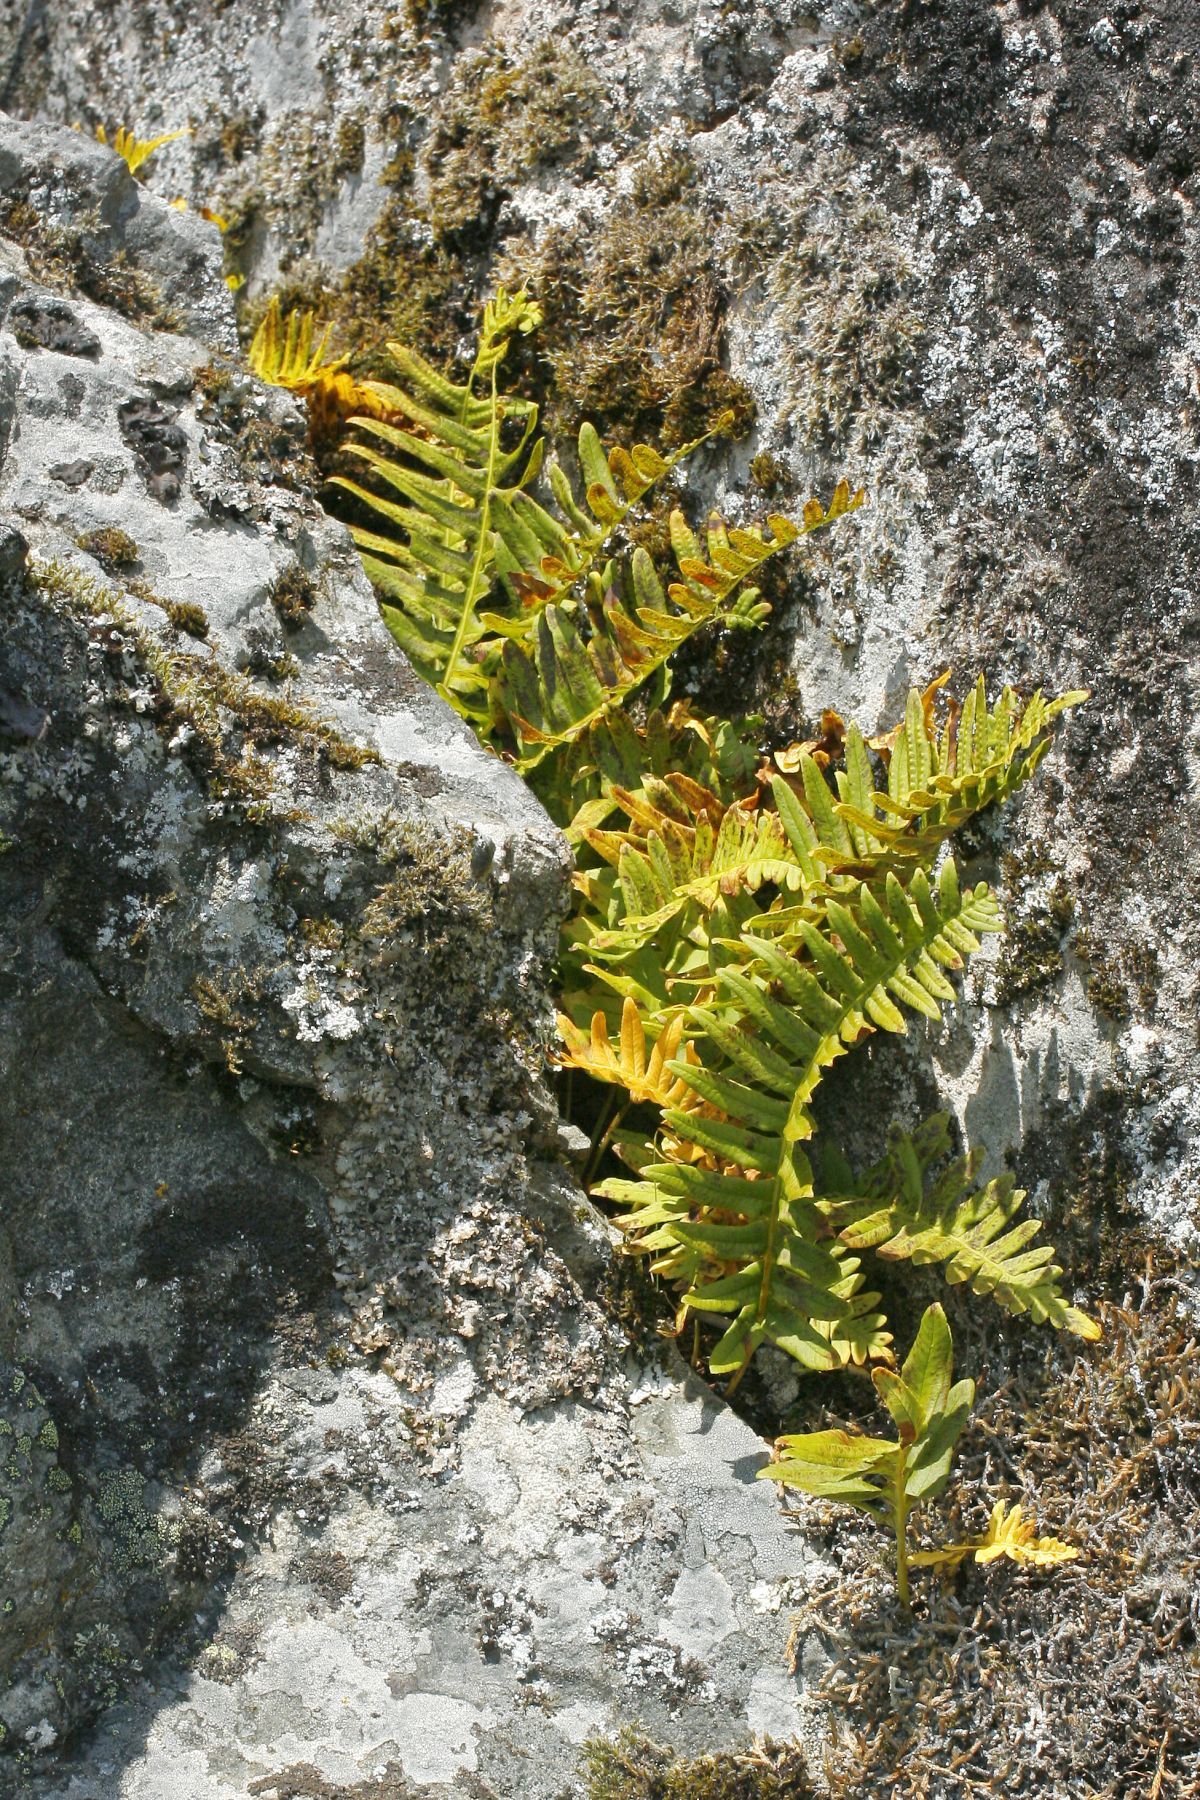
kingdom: Plantae
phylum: Tracheophyta
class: Polypodiopsida
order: Polypodiales
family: Polypodiaceae
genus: Polypodium
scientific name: Polypodium glycyrrhiza
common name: Licorice fern
